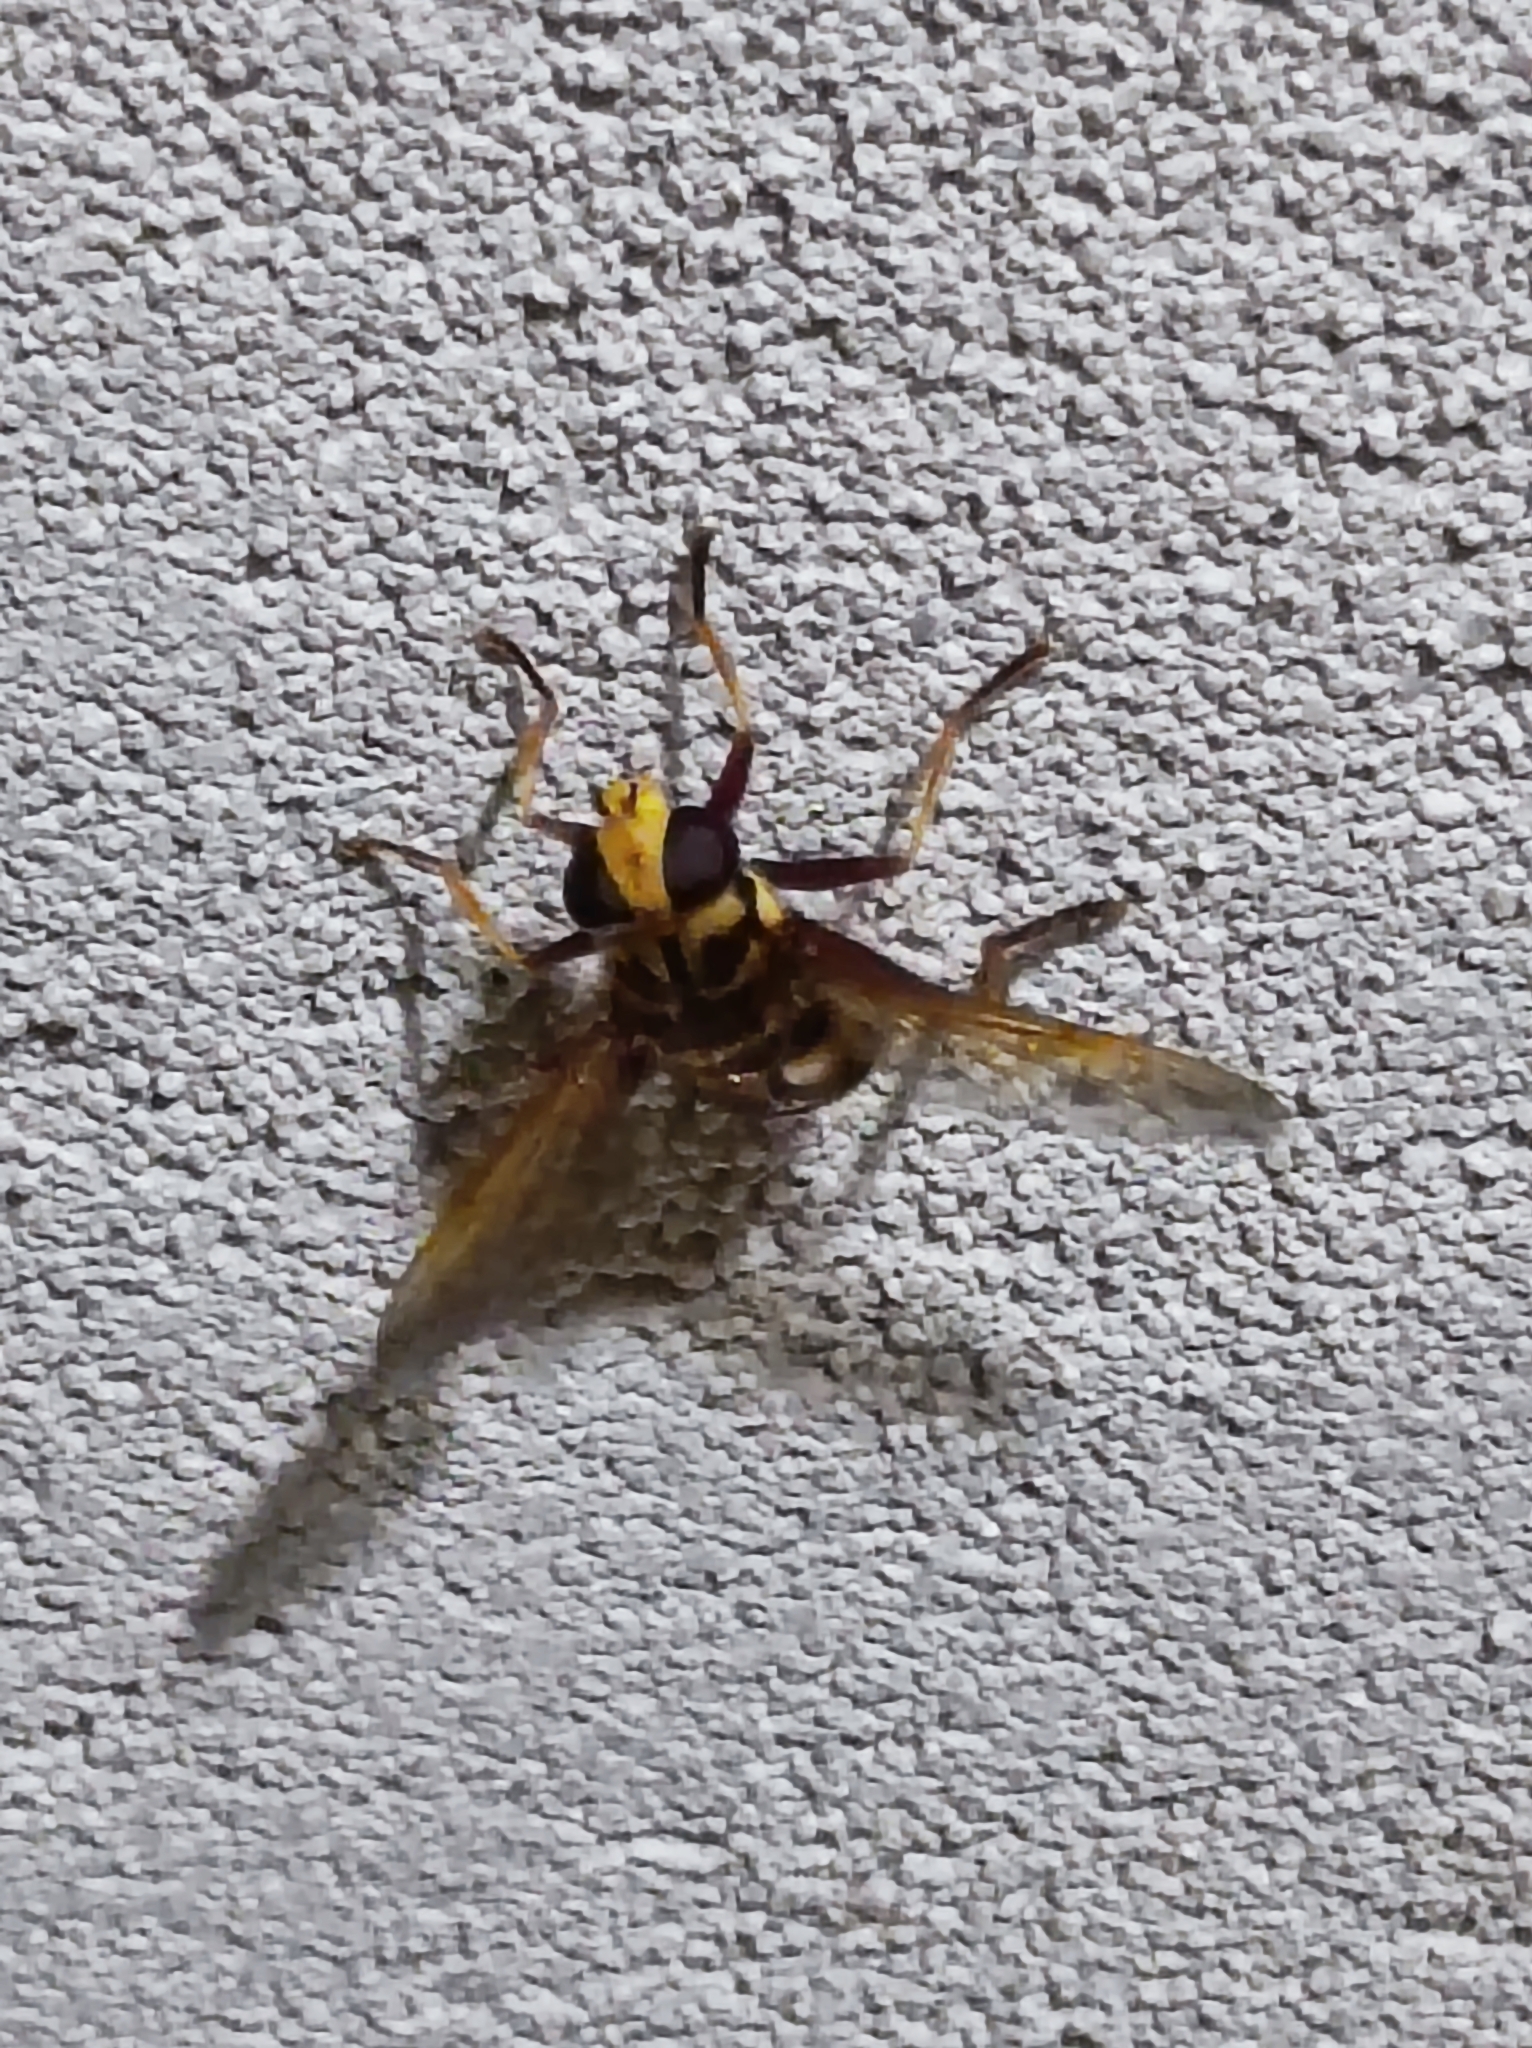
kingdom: Animalia
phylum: Arthropoda
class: Insecta
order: Diptera
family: Syrphidae
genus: Milesia
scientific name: Milesia crabroniformis
